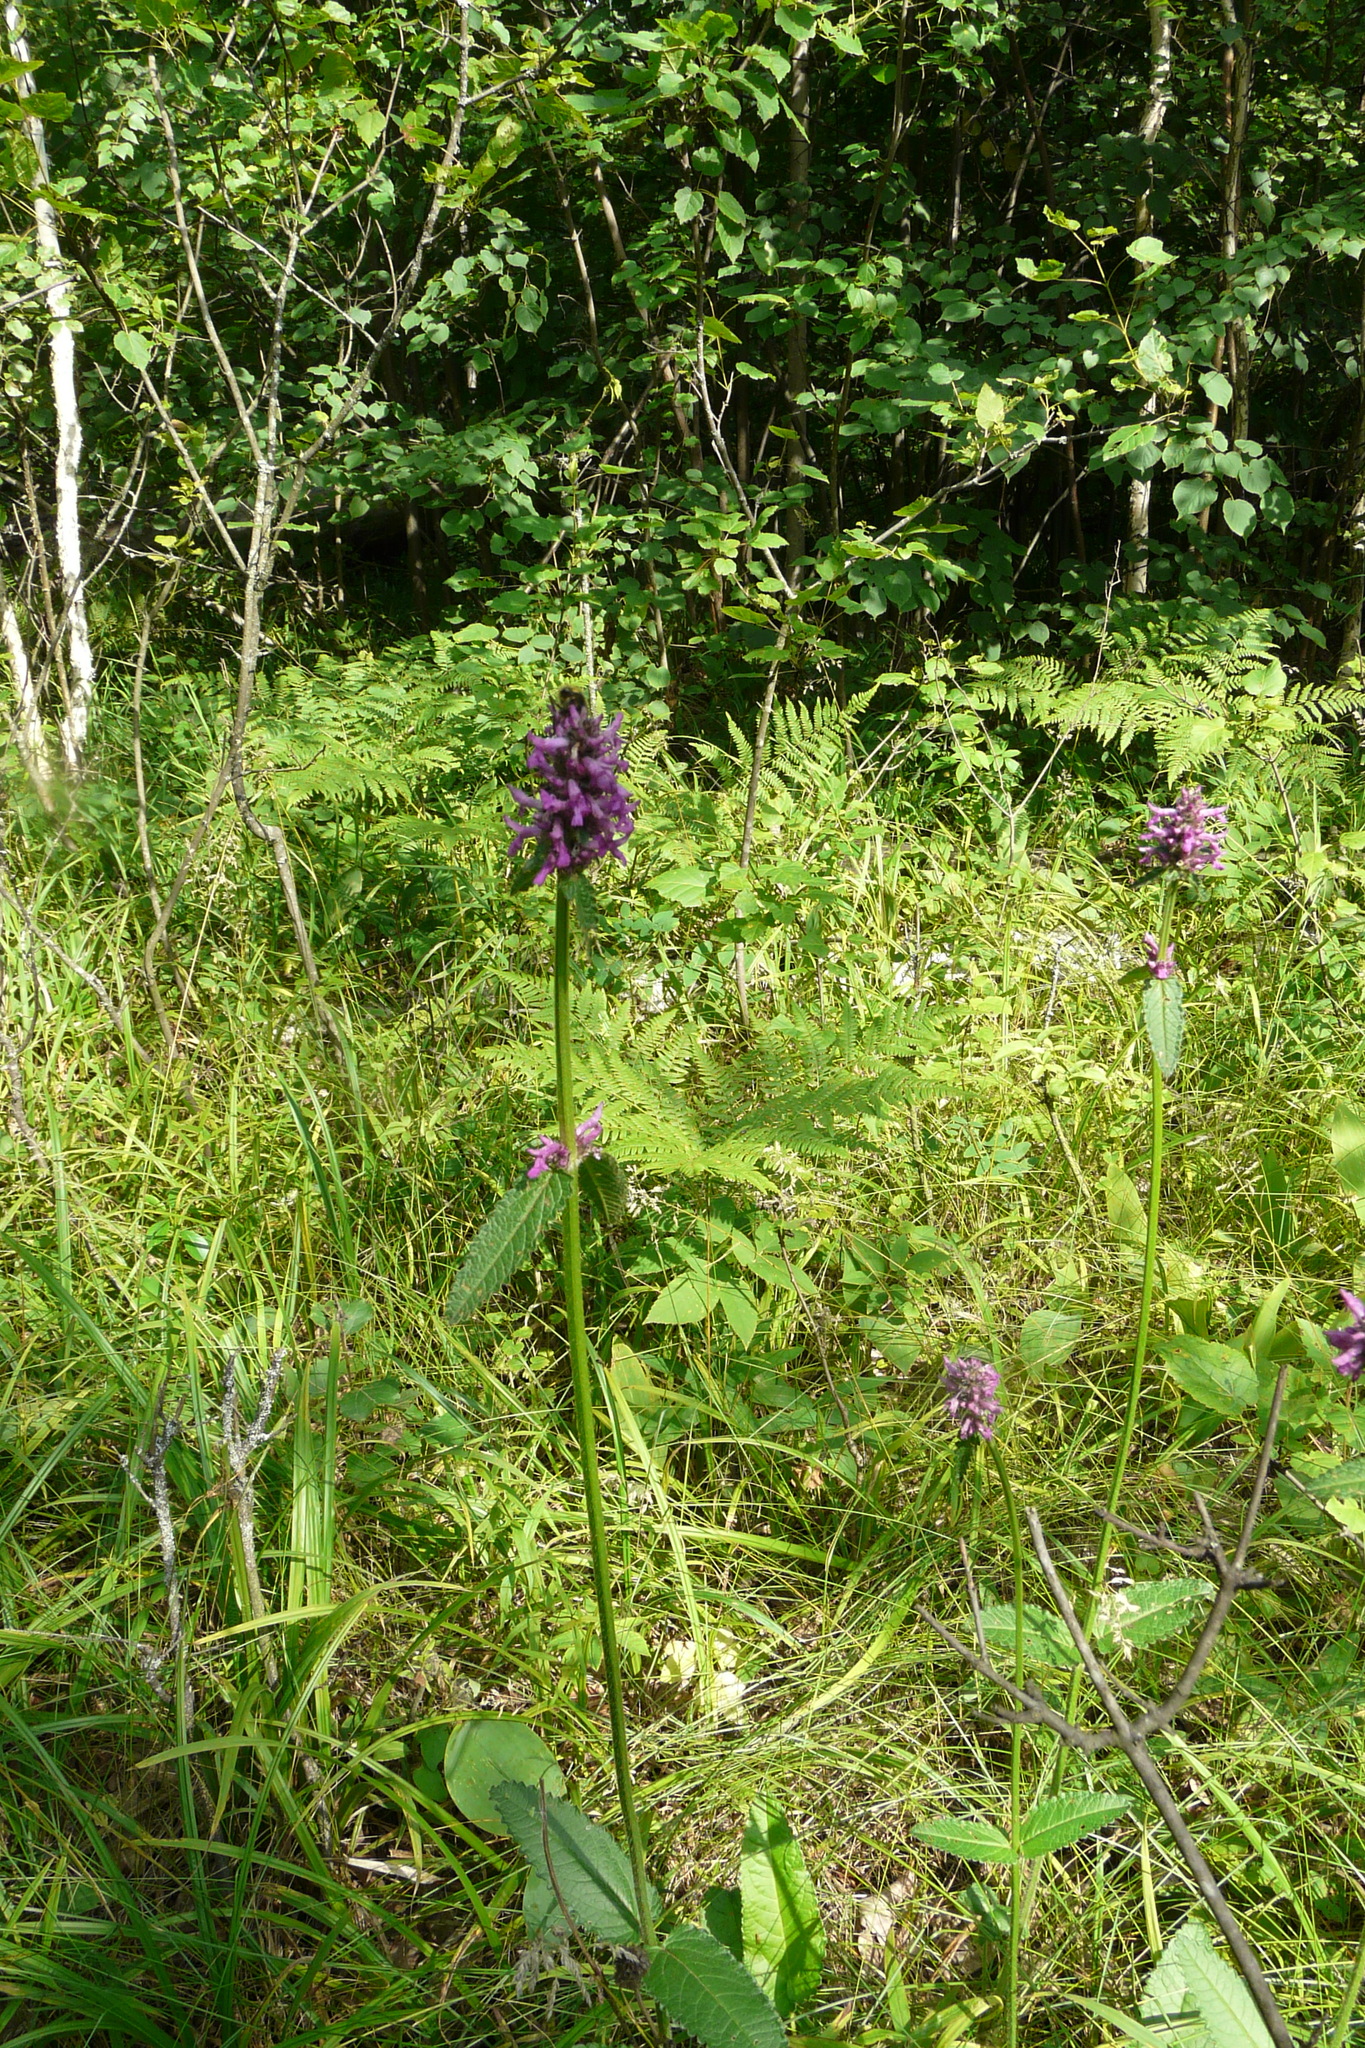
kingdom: Plantae
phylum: Tracheophyta
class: Magnoliopsida
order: Lamiales
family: Lamiaceae
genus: Betonica
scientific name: Betonica officinalis
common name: Bishop's-wort
